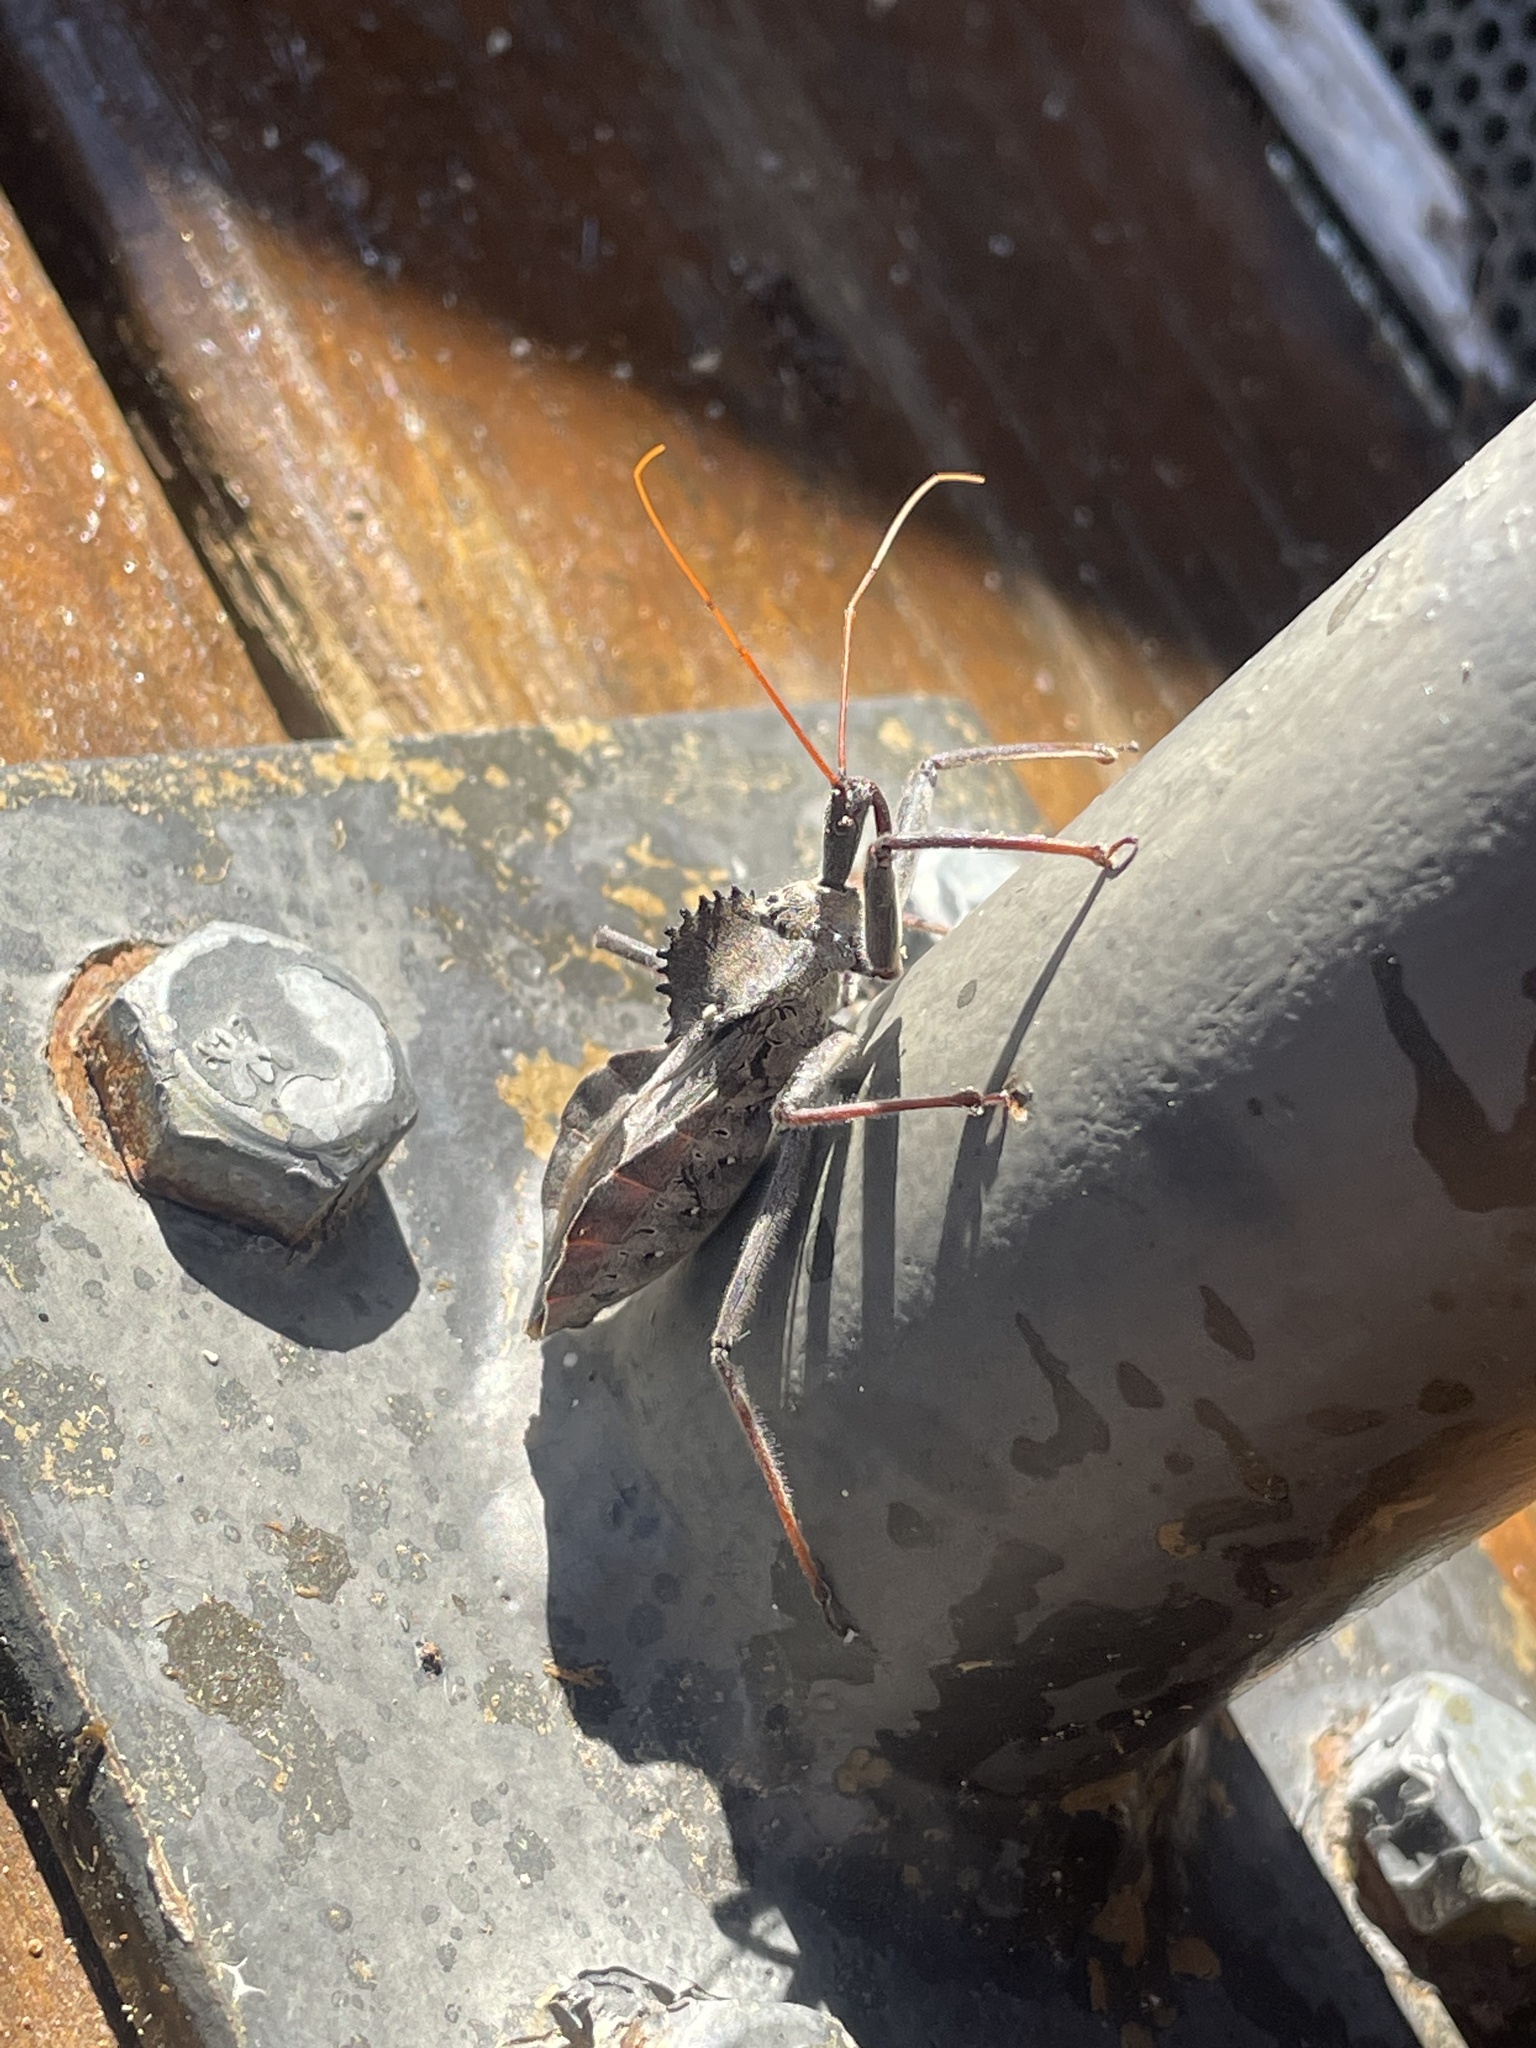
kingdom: Animalia
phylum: Arthropoda
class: Insecta
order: Hemiptera
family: Reduviidae
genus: Arilus
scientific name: Arilus cristatus
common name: North american wheel bug
